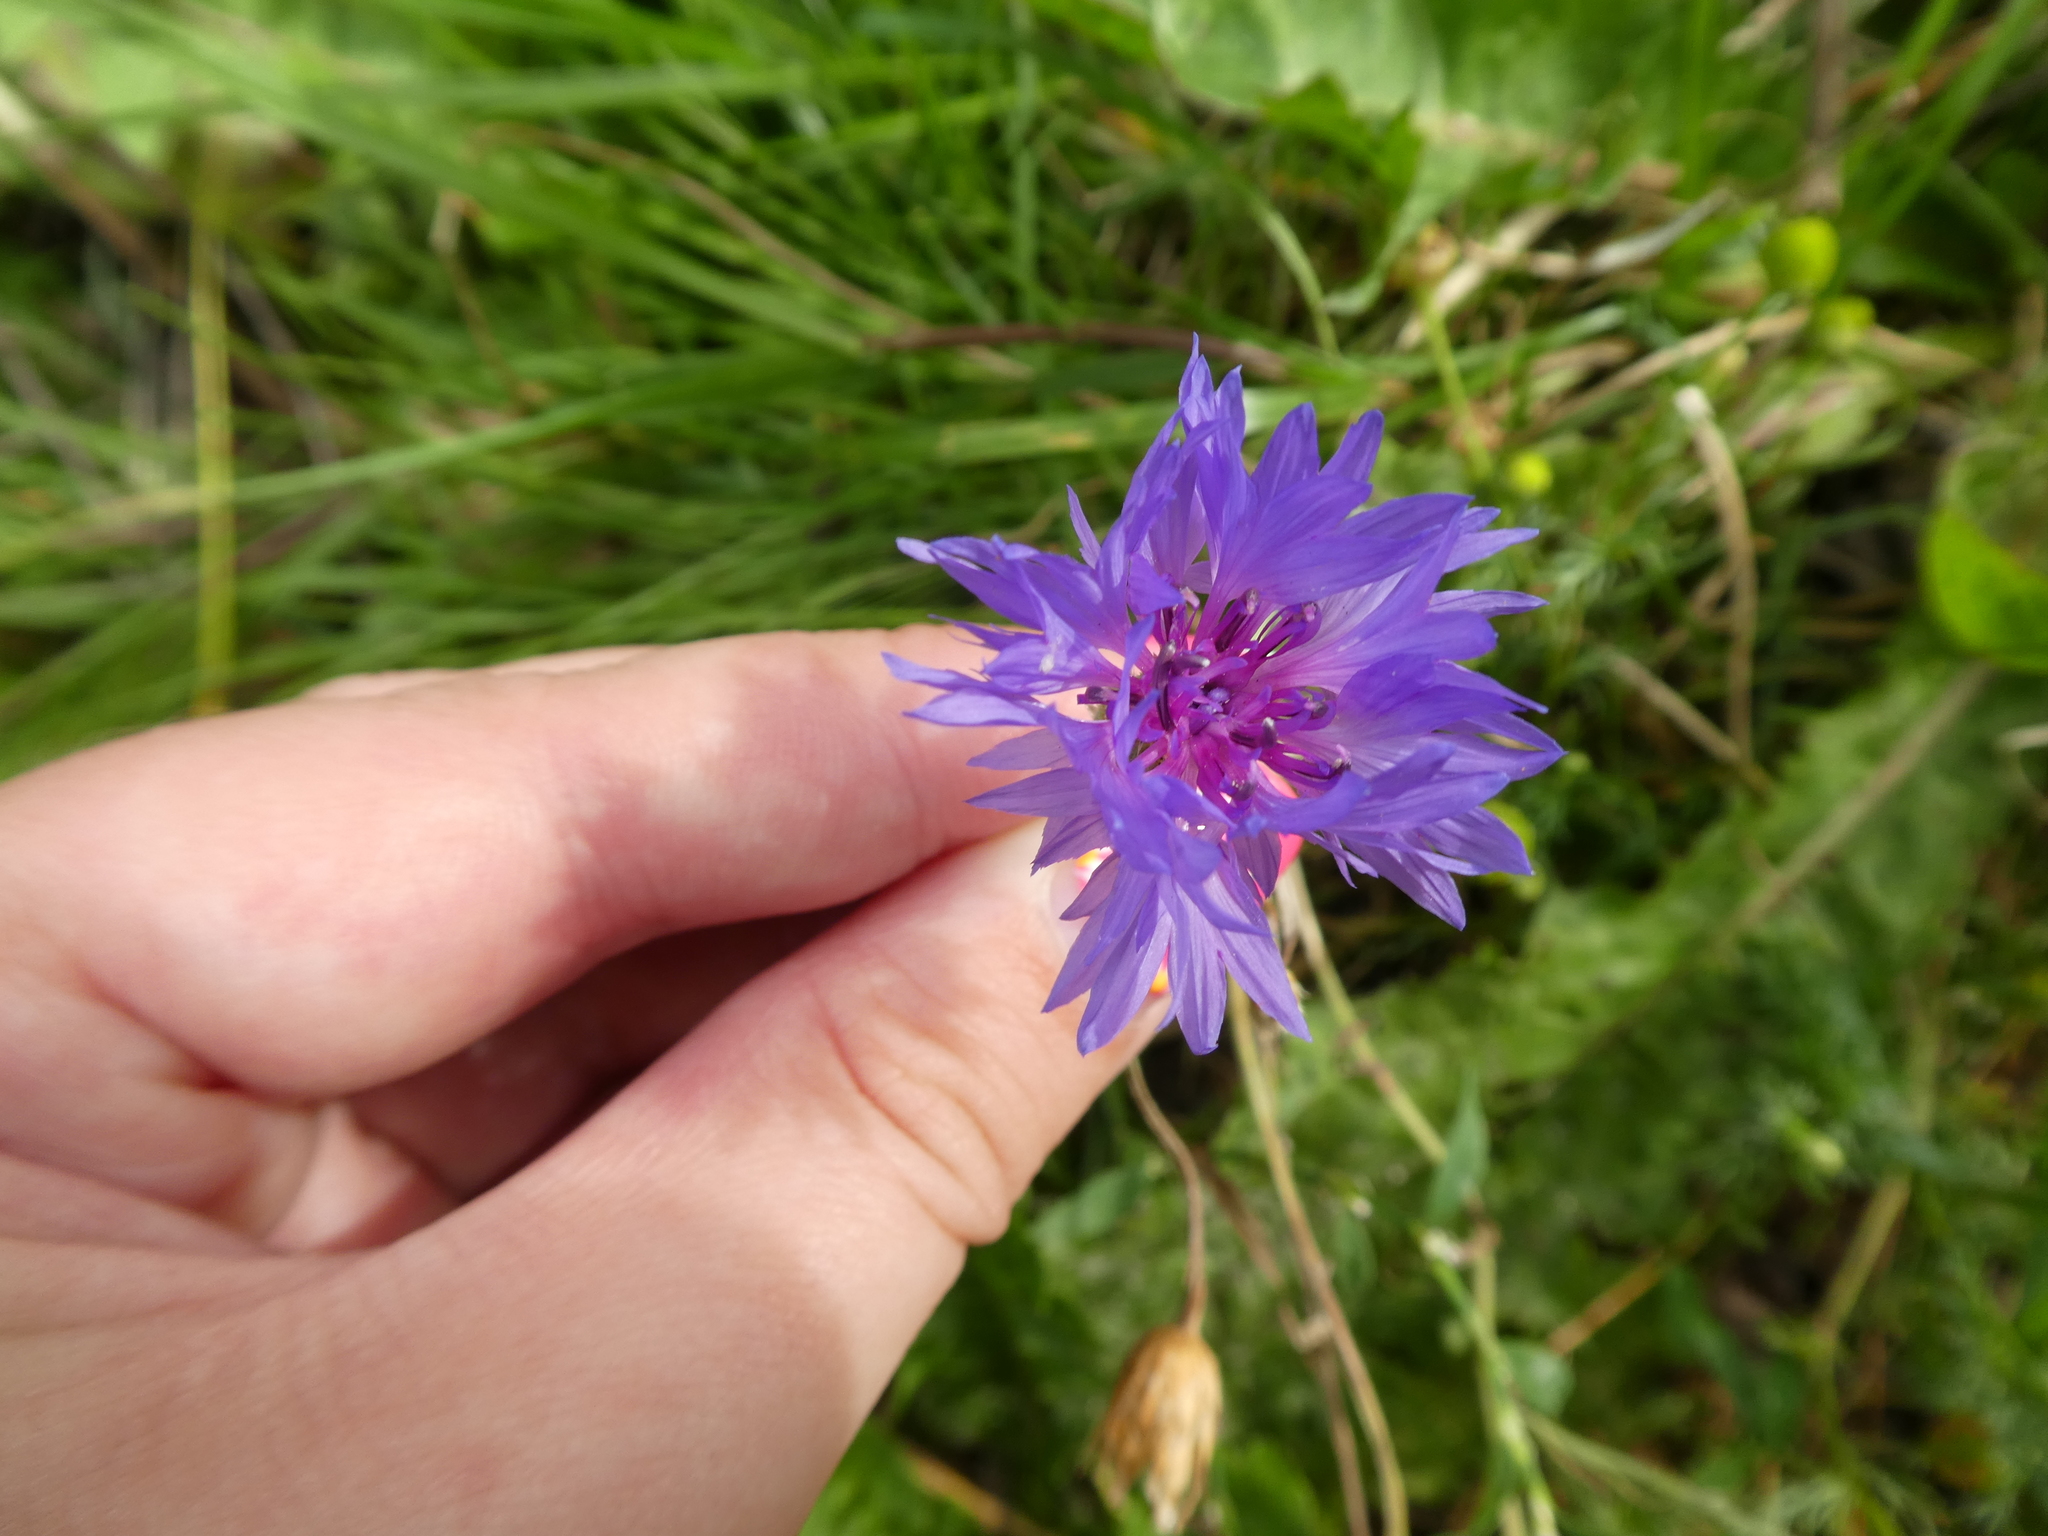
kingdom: Plantae
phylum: Tracheophyta
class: Magnoliopsida
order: Asterales
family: Asteraceae
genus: Centaurea
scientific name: Centaurea cyanus
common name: Cornflower
